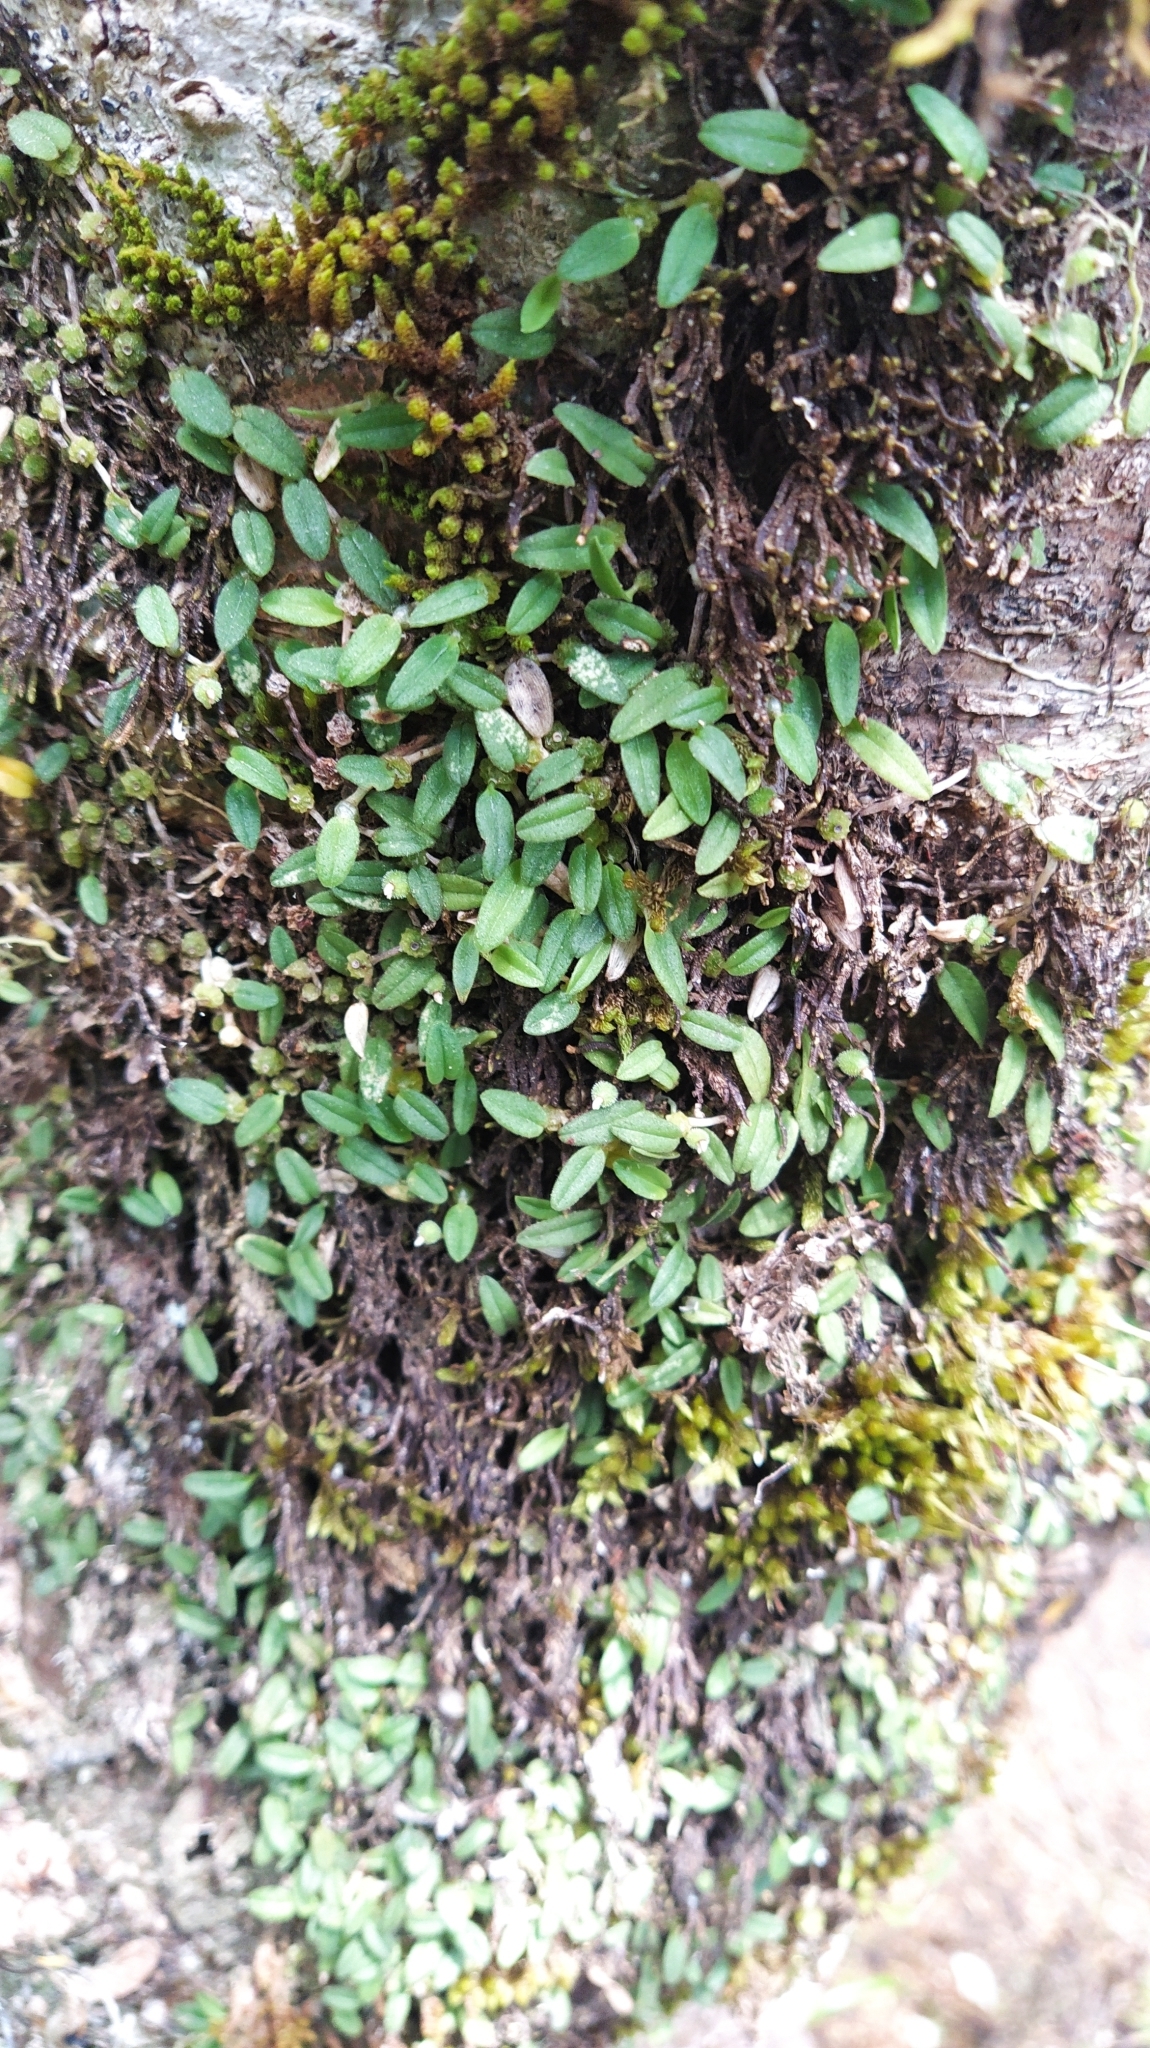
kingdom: Plantae
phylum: Tracheophyta
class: Liliopsida
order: Asparagales
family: Orchidaceae
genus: Bulbophyllum
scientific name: Bulbophyllum pygmaeum
